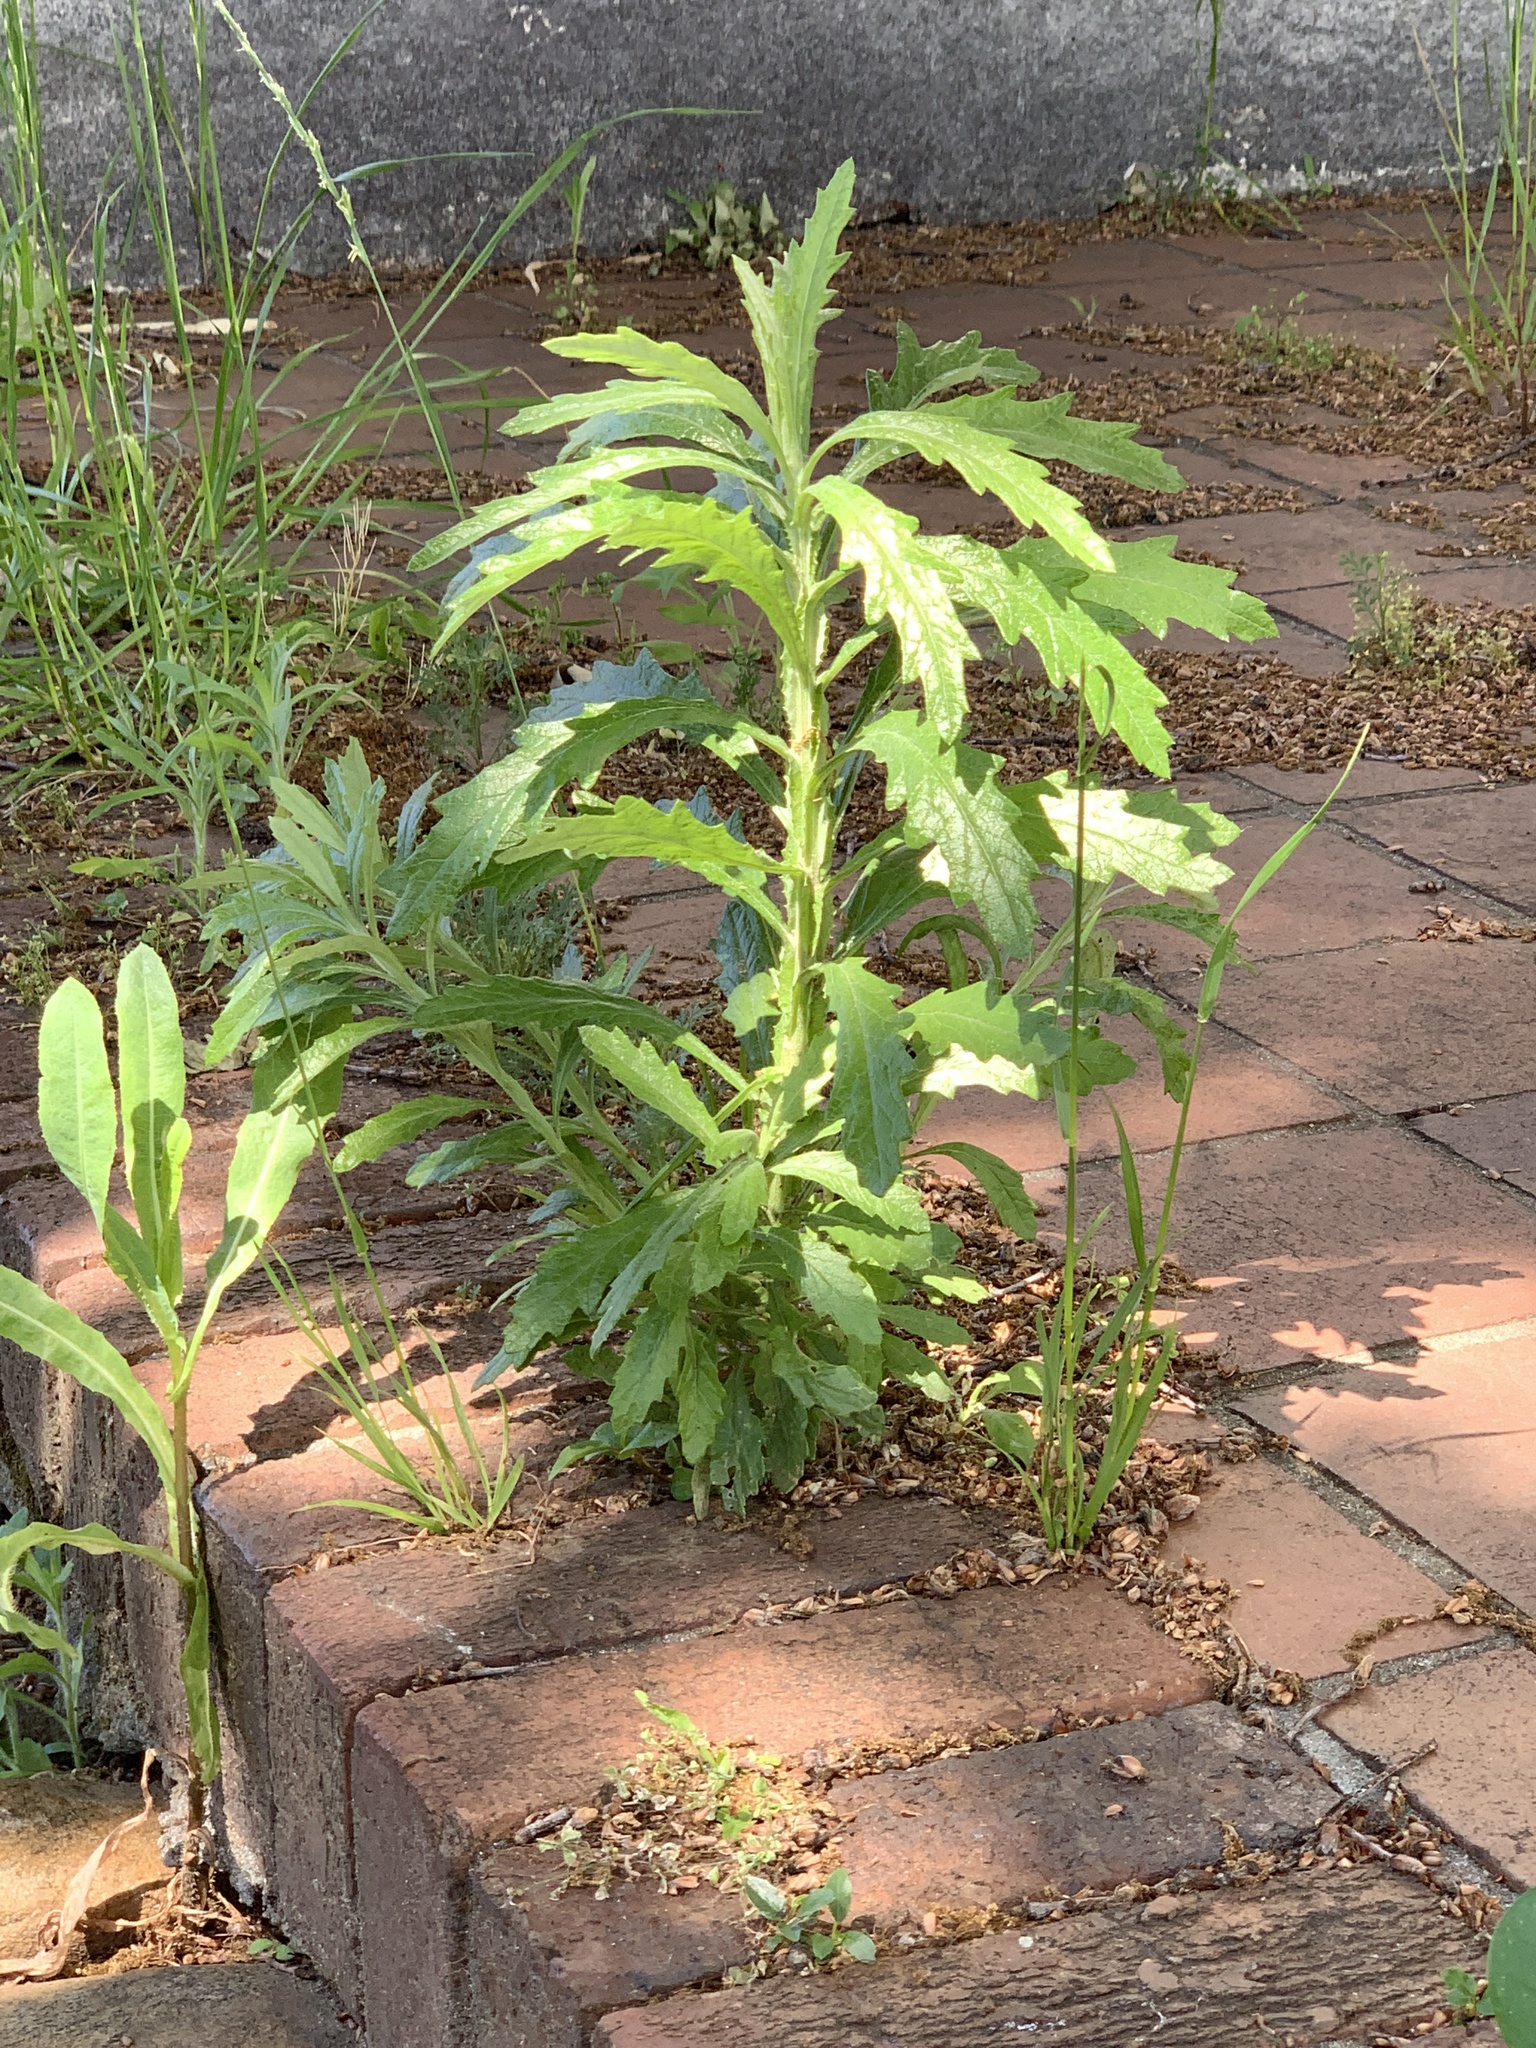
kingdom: Plantae
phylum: Tracheophyta
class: Magnoliopsida
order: Asterales
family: Asteraceae
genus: Senecio
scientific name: Senecio pterophorus
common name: Shoddy ragwort
